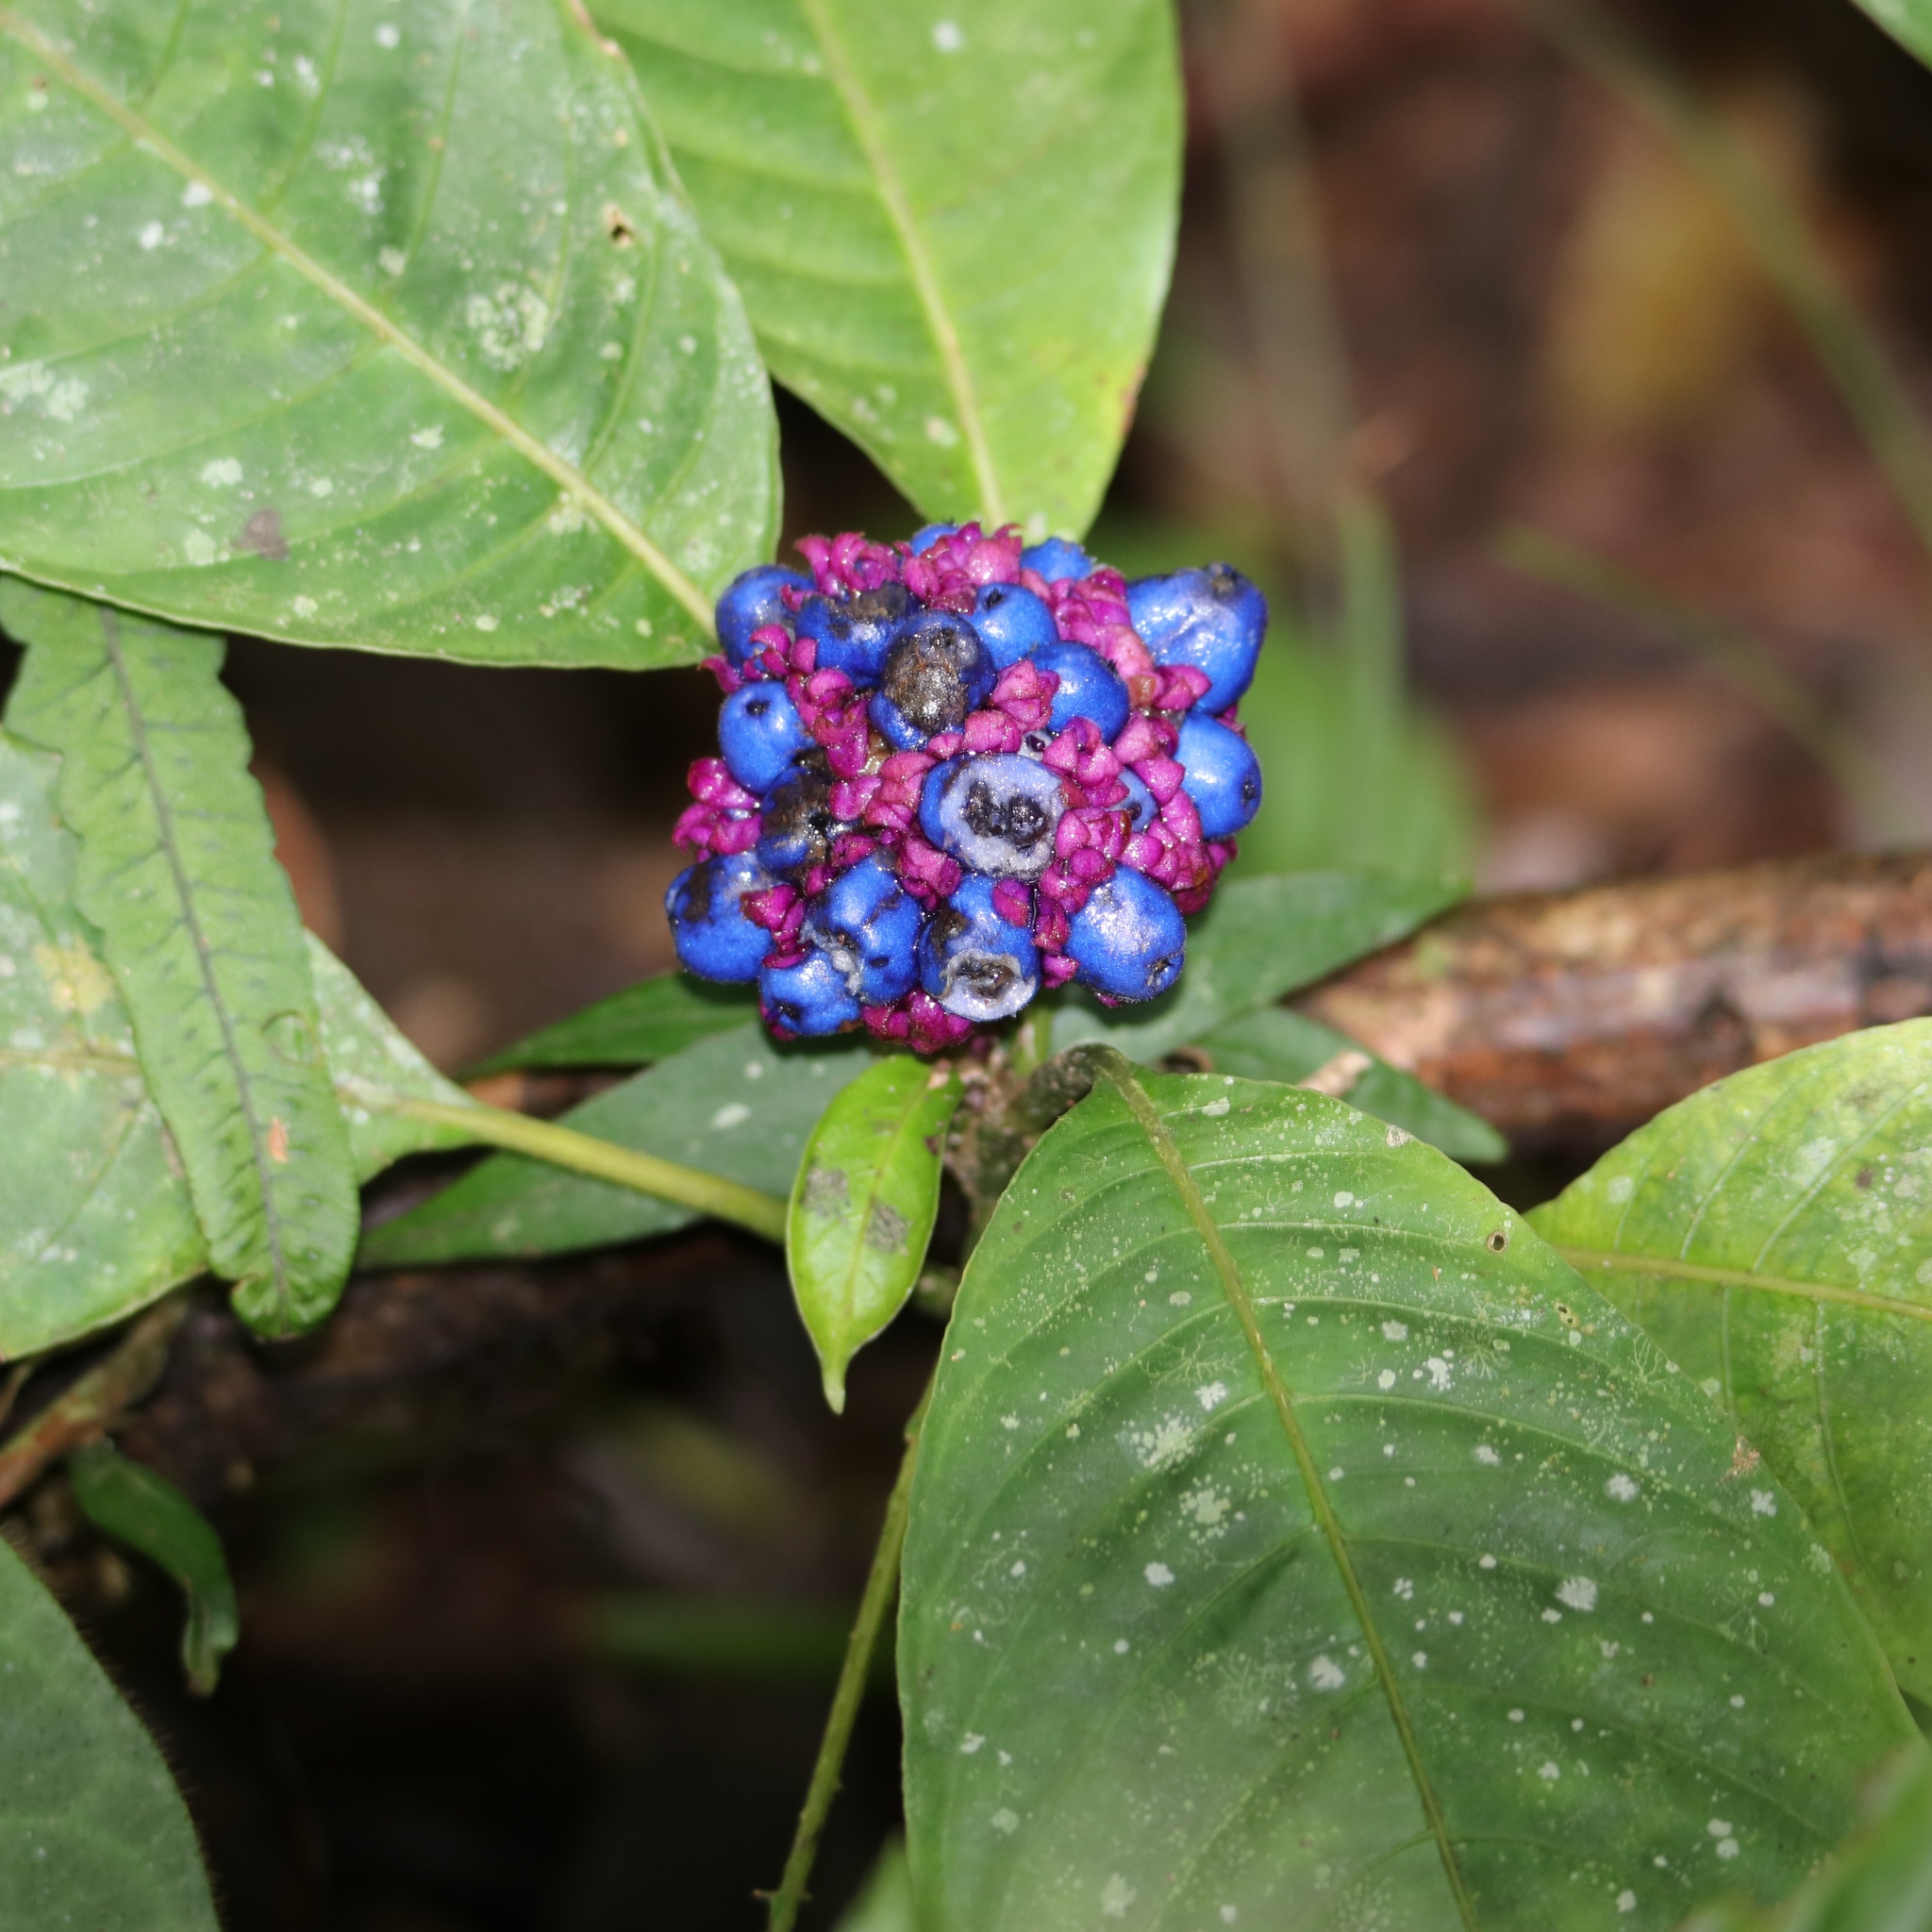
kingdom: Plantae
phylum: Tracheophyta
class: Magnoliopsida
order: Gentianales
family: Rubiaceae
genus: Palicourea
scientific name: Palicourea tonduzii
